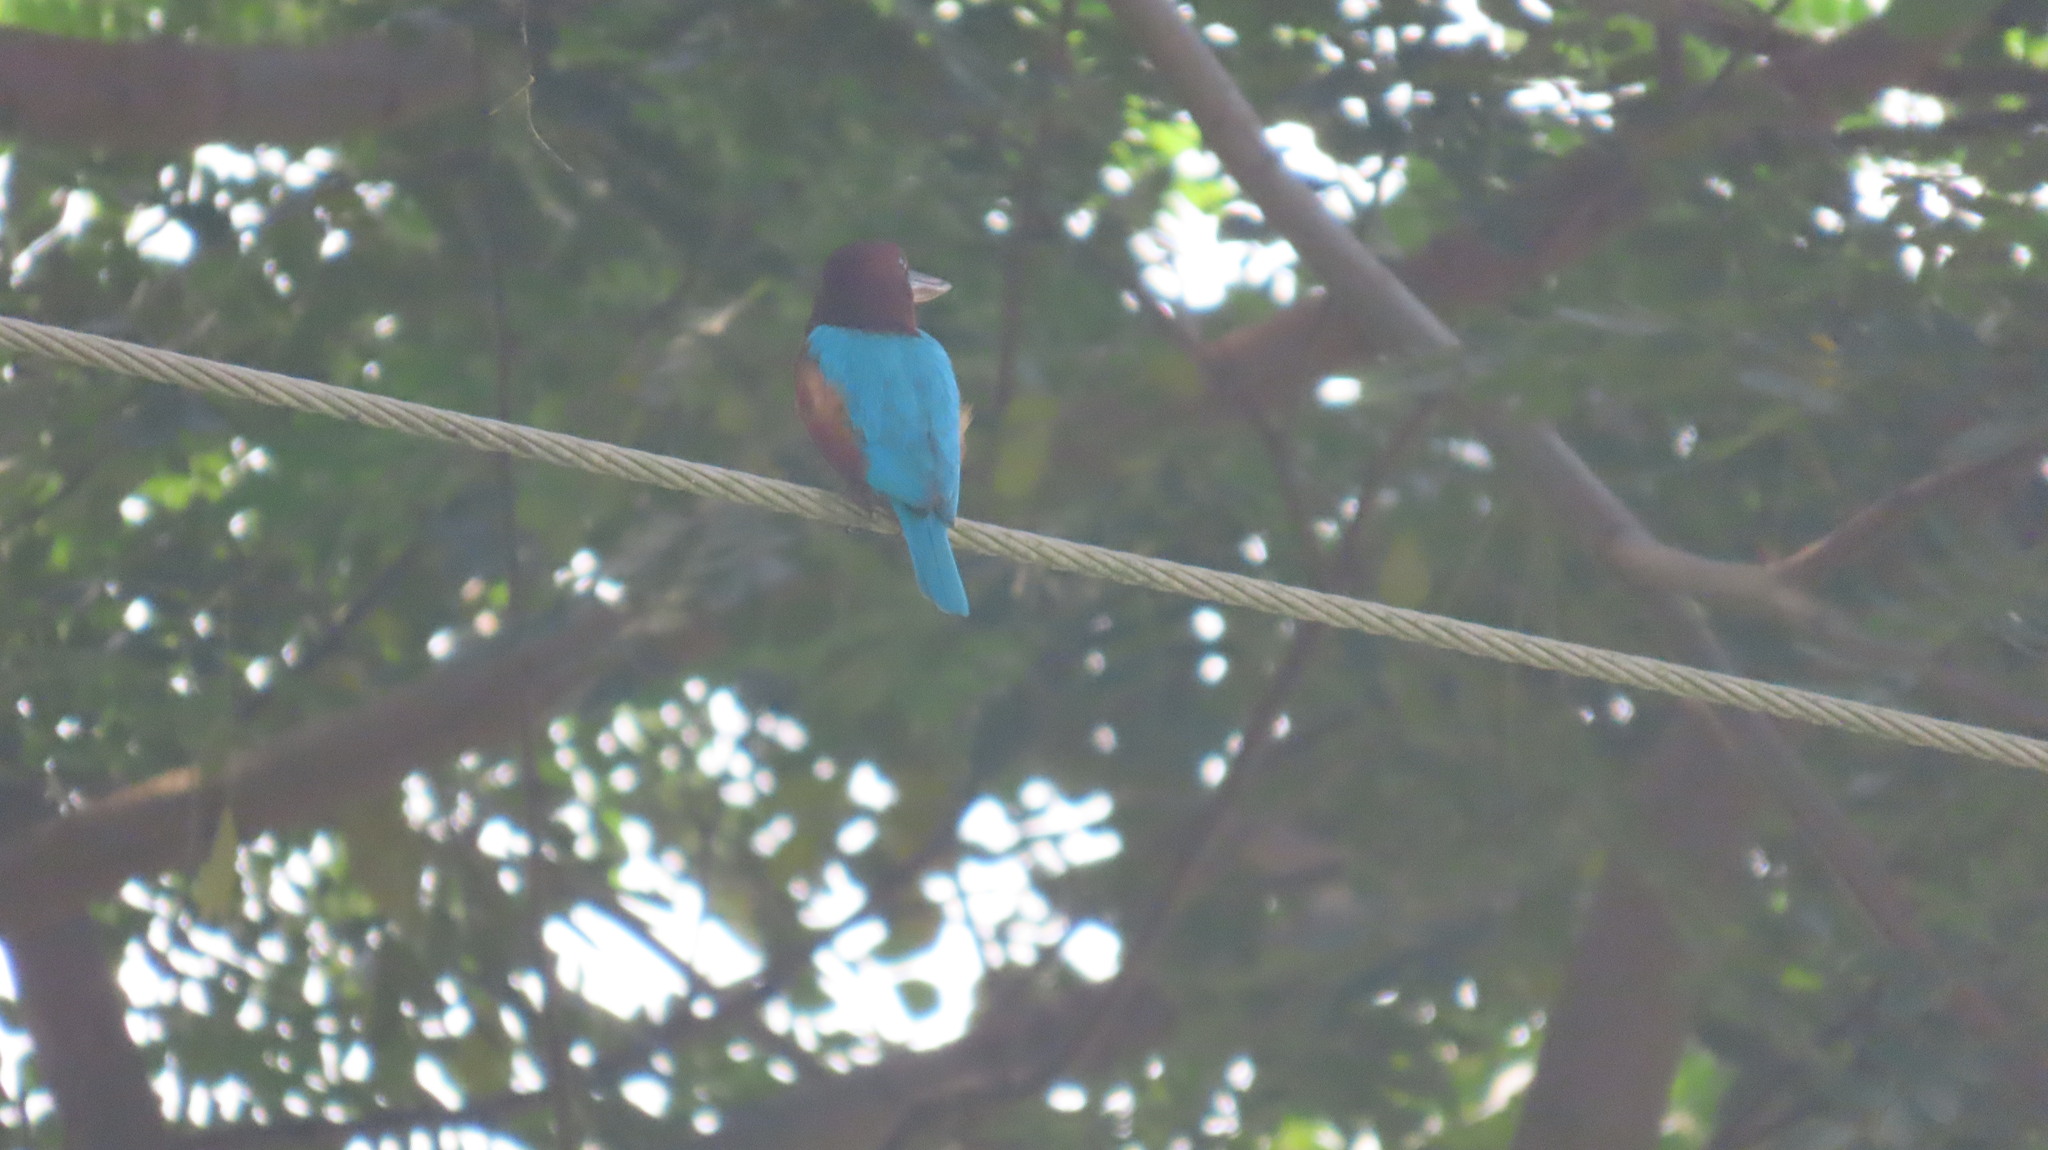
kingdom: Animalia
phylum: Chordata
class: Aves
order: Coraciiformes
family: Alcedinidae
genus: Halcyon
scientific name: Halcyon smyrnensis
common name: White-throated kingfisher
